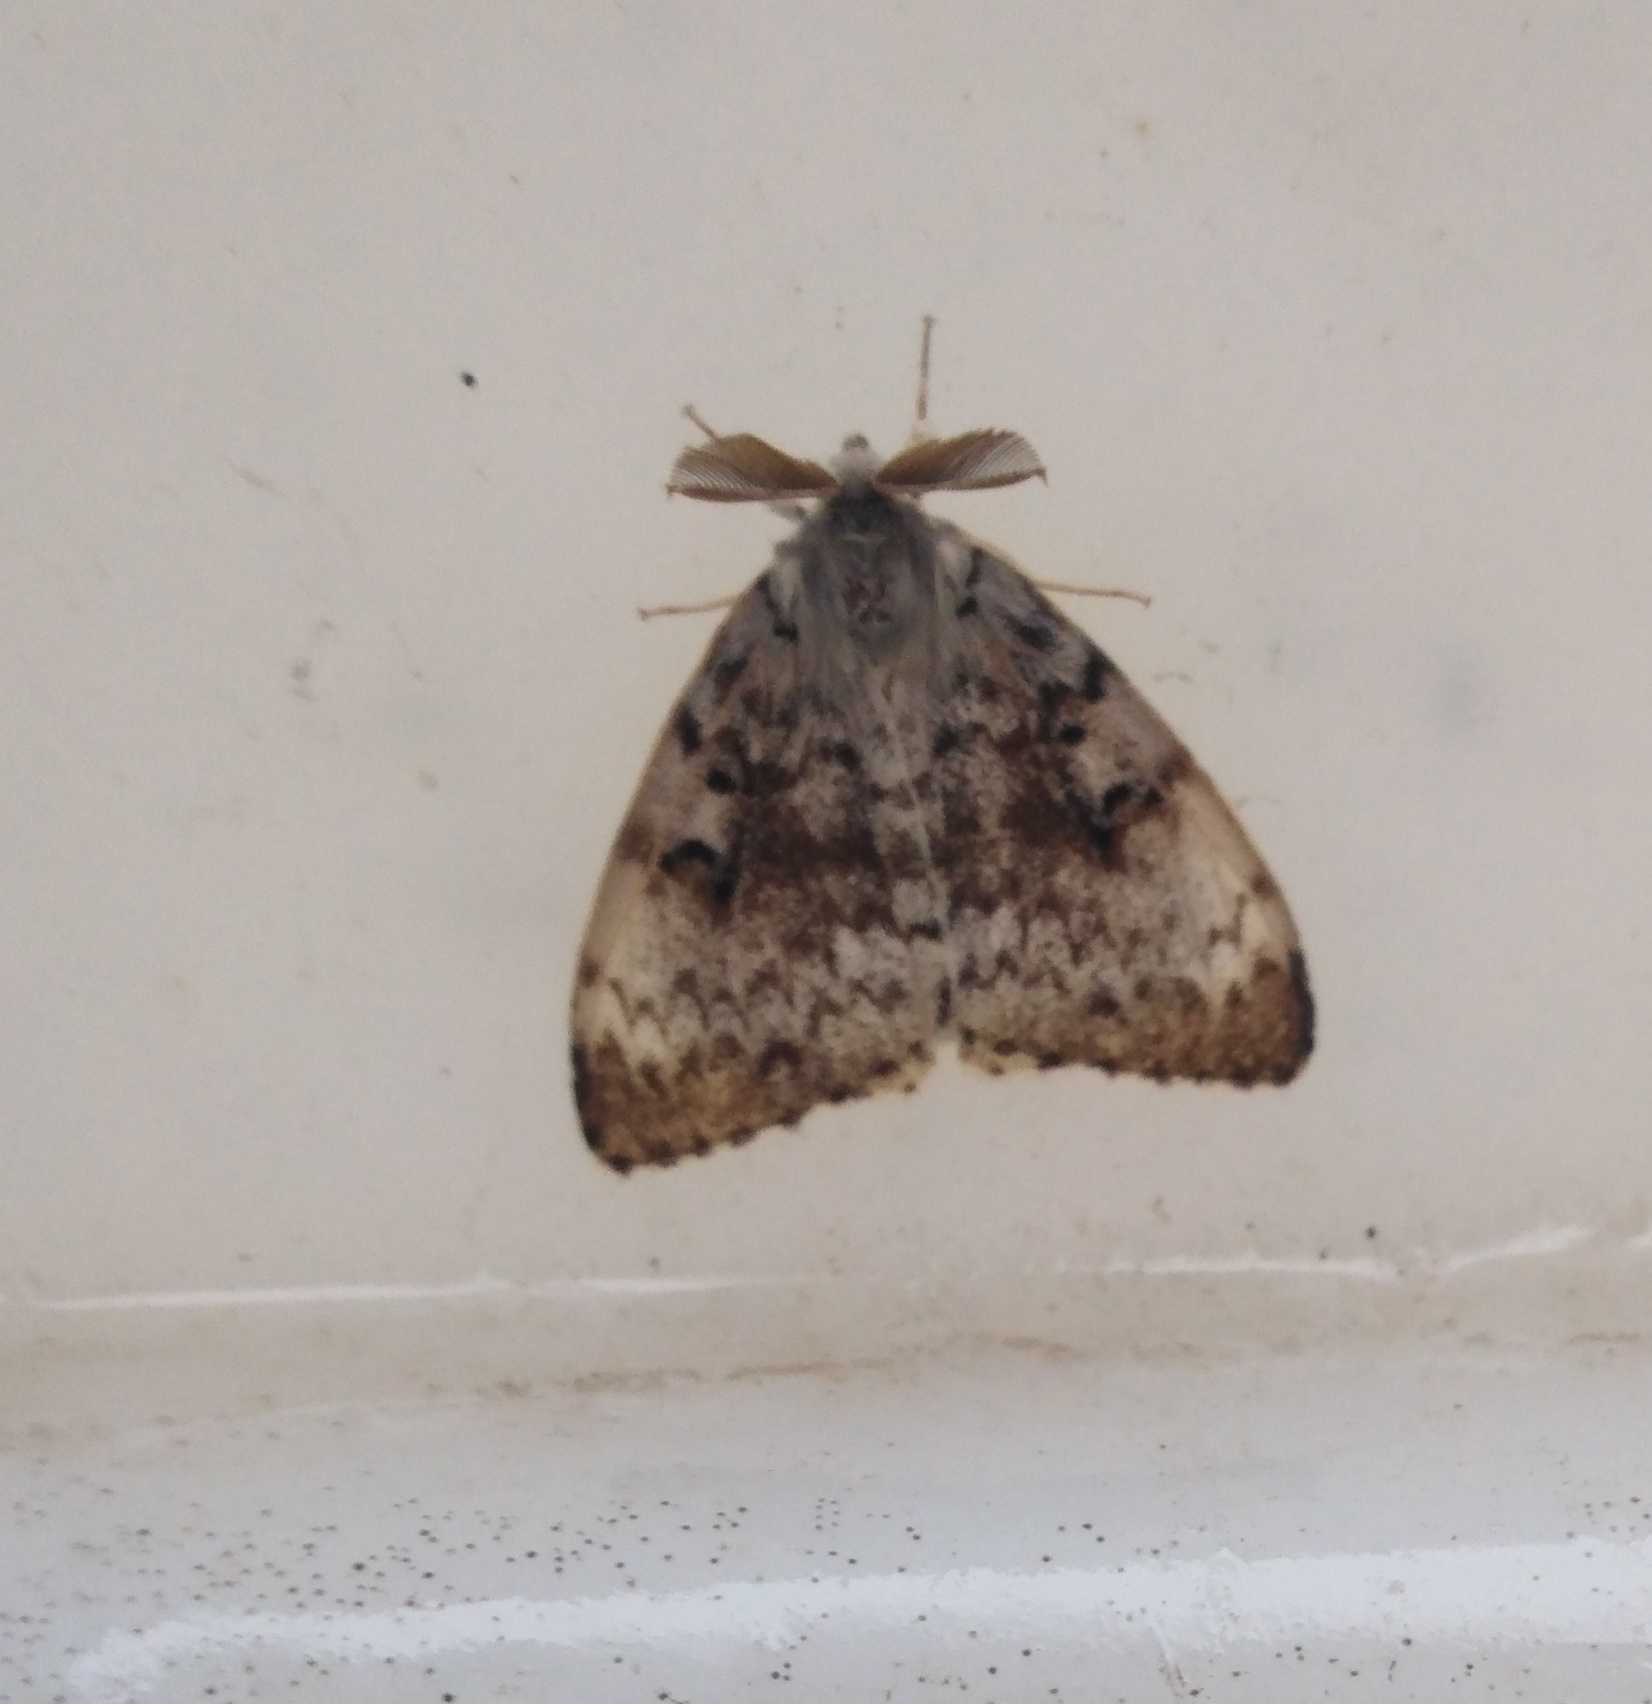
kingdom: Animalia
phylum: Arthropoda
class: Insecta
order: Lepidoptera
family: Erebidae
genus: Lymantria
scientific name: Lymantria dispar
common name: Gypsy moth
